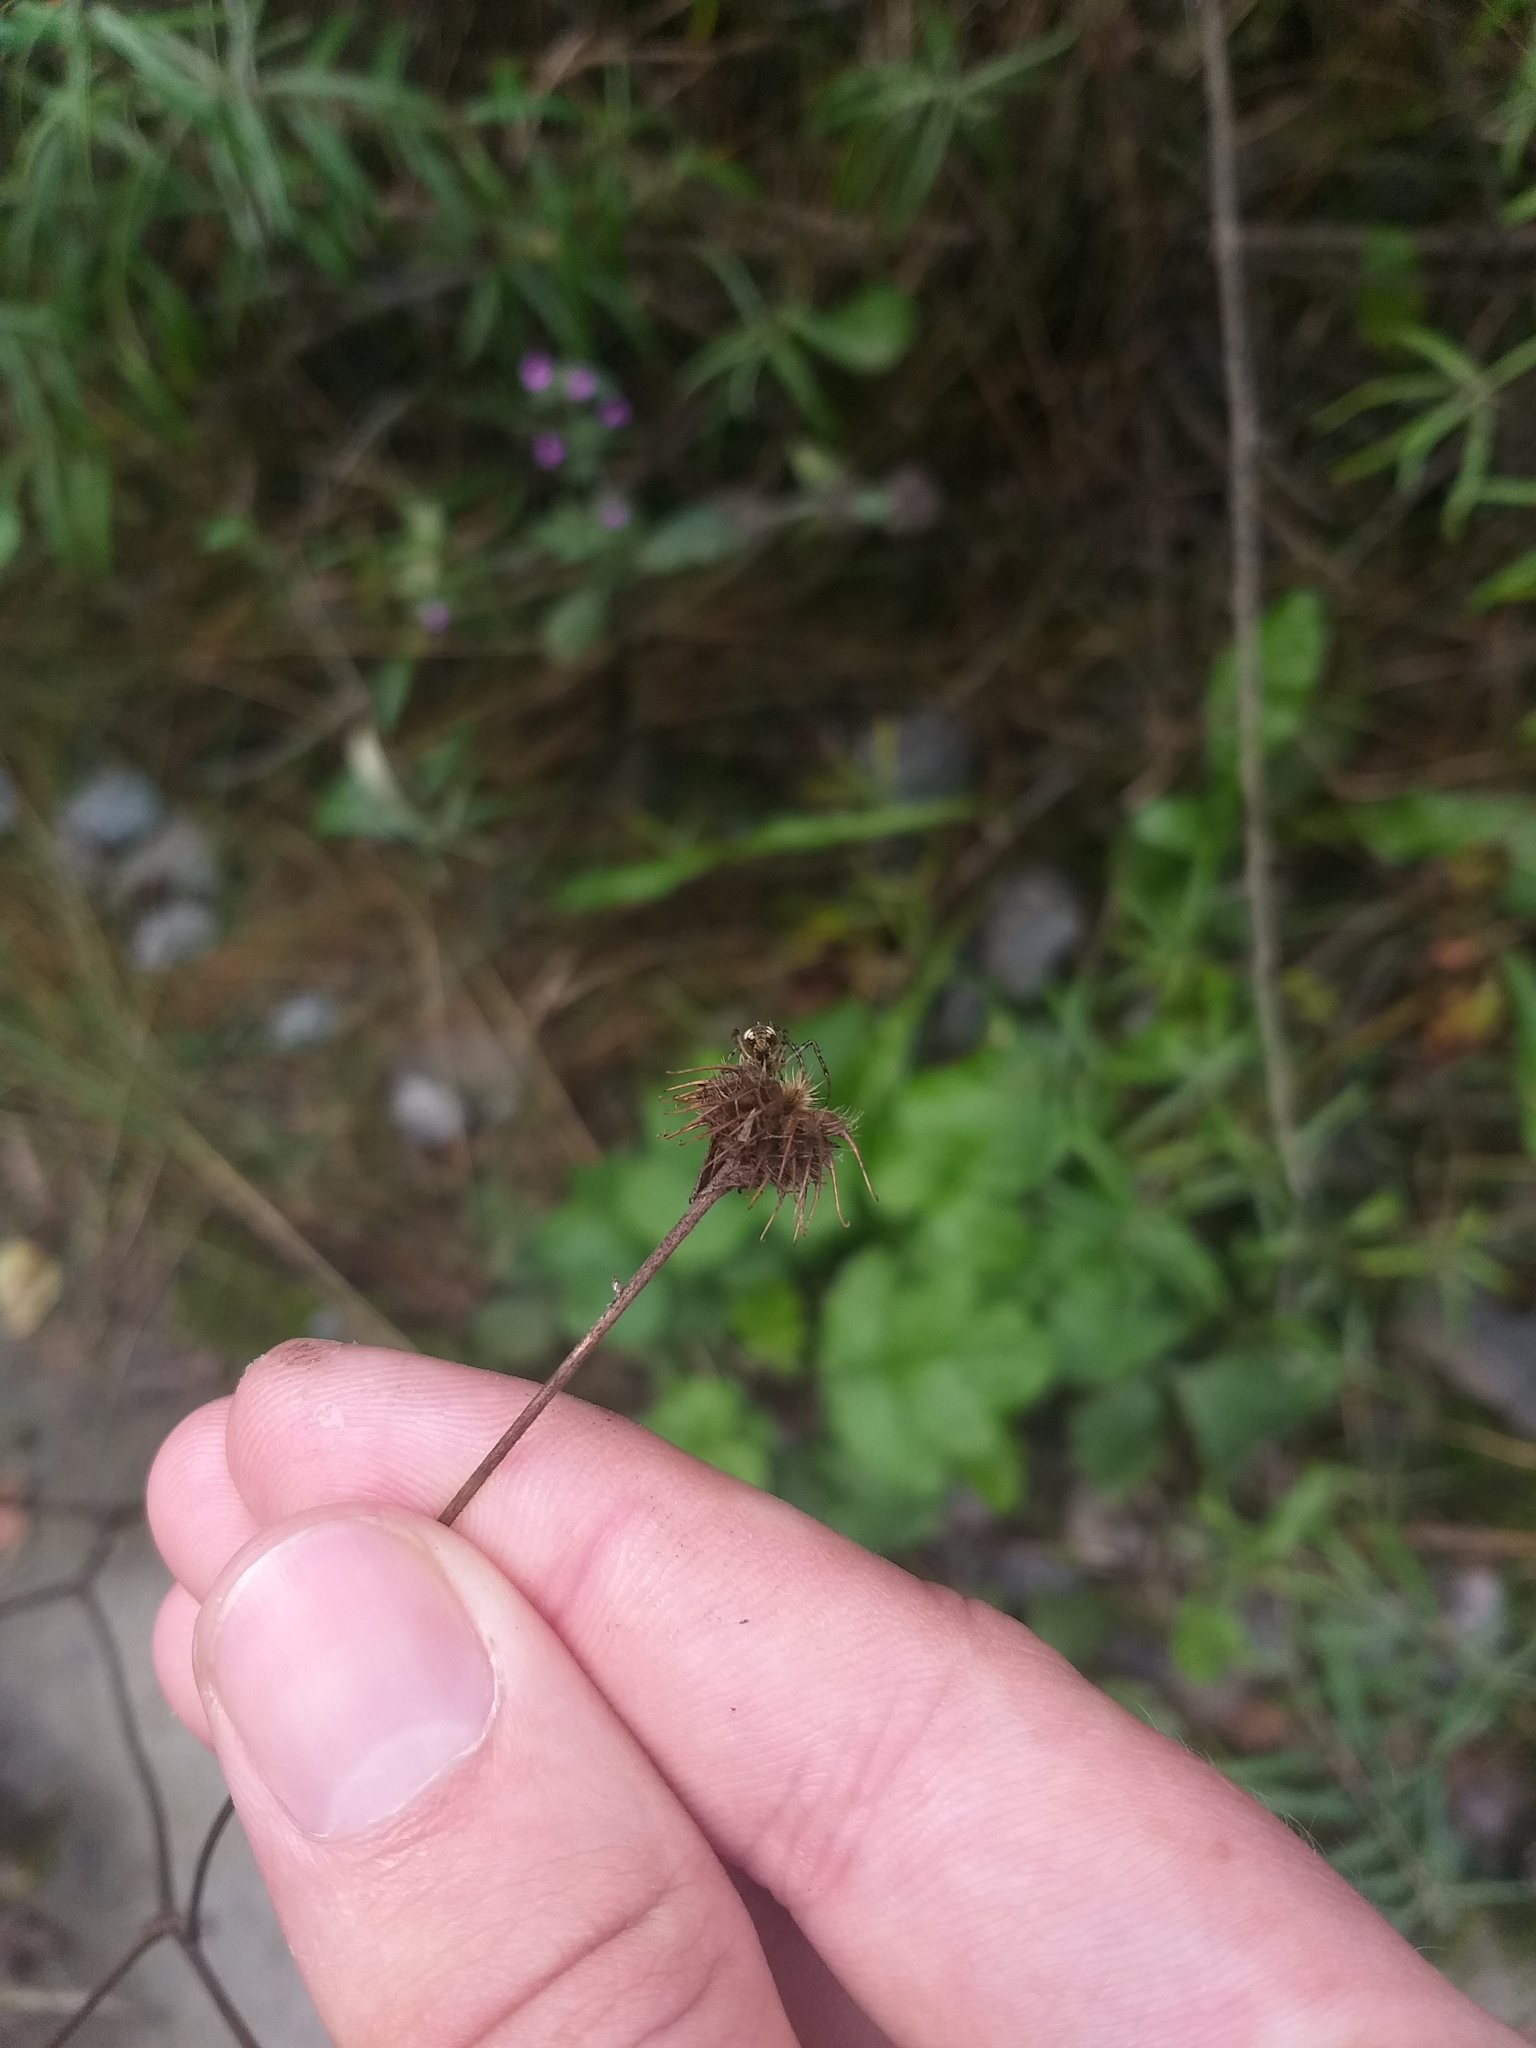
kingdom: Plantae
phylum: Tracheophyta
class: Magnoliopsida
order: Rosales
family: Rosaceae
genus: Geum
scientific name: Geum urbanum
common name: Wood avens
